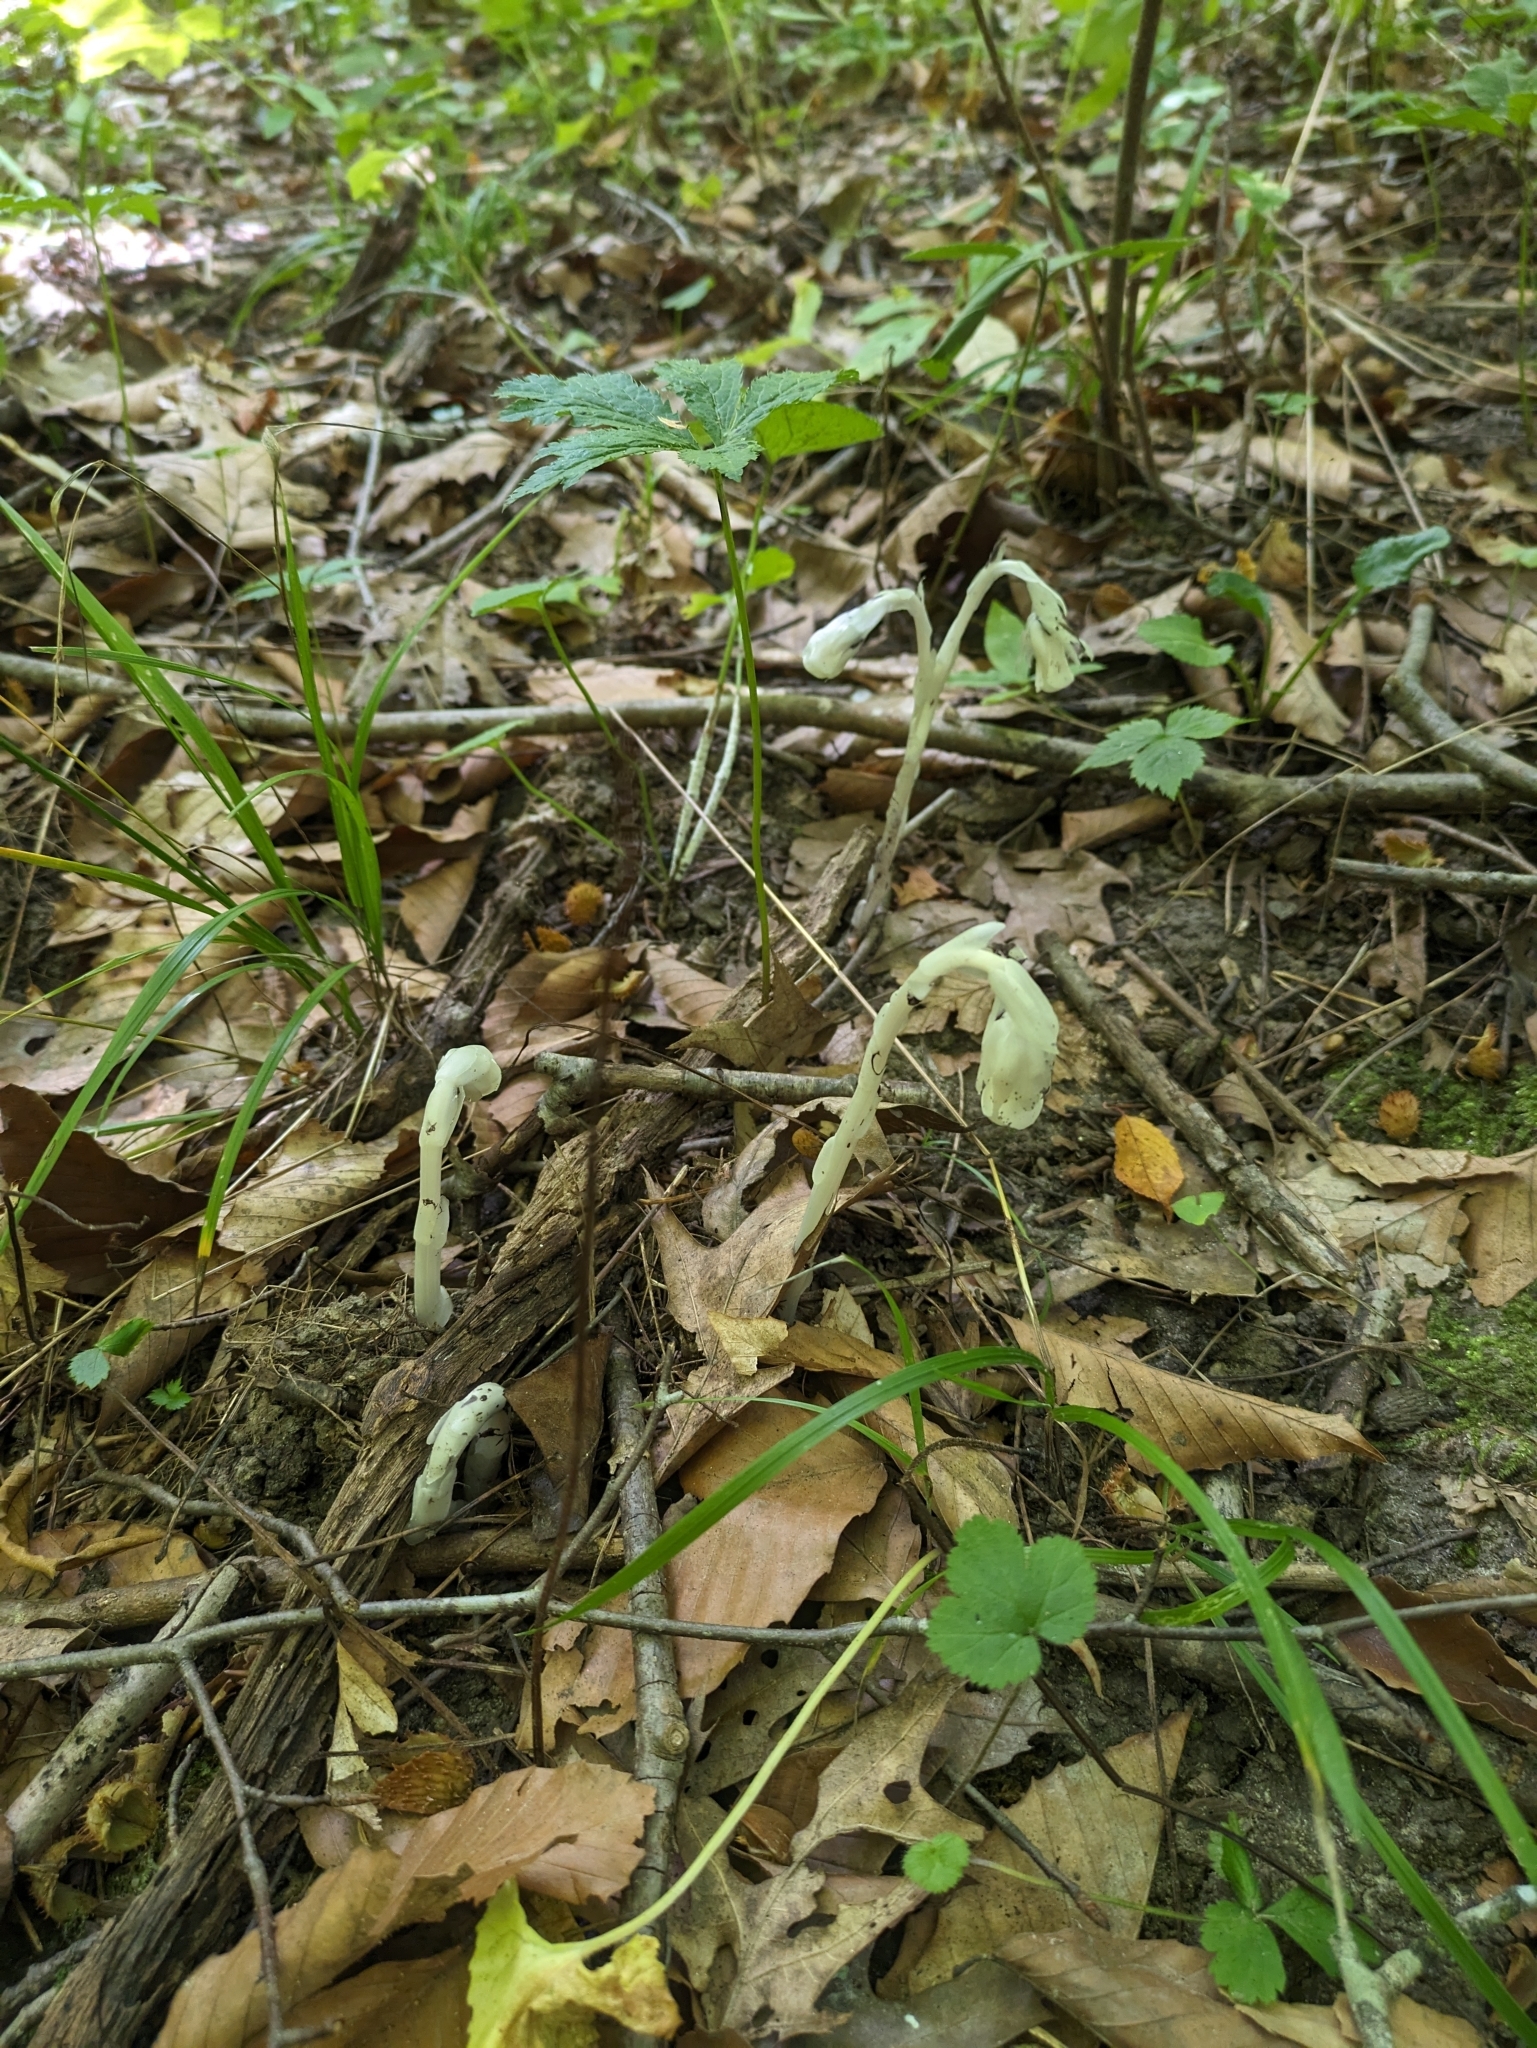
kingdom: Plantae
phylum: Tracheophyta
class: Magnoliopsida
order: Ericales
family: Ericaceae
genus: Monotropa
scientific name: Monotropa uniflora
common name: Convulsion root
